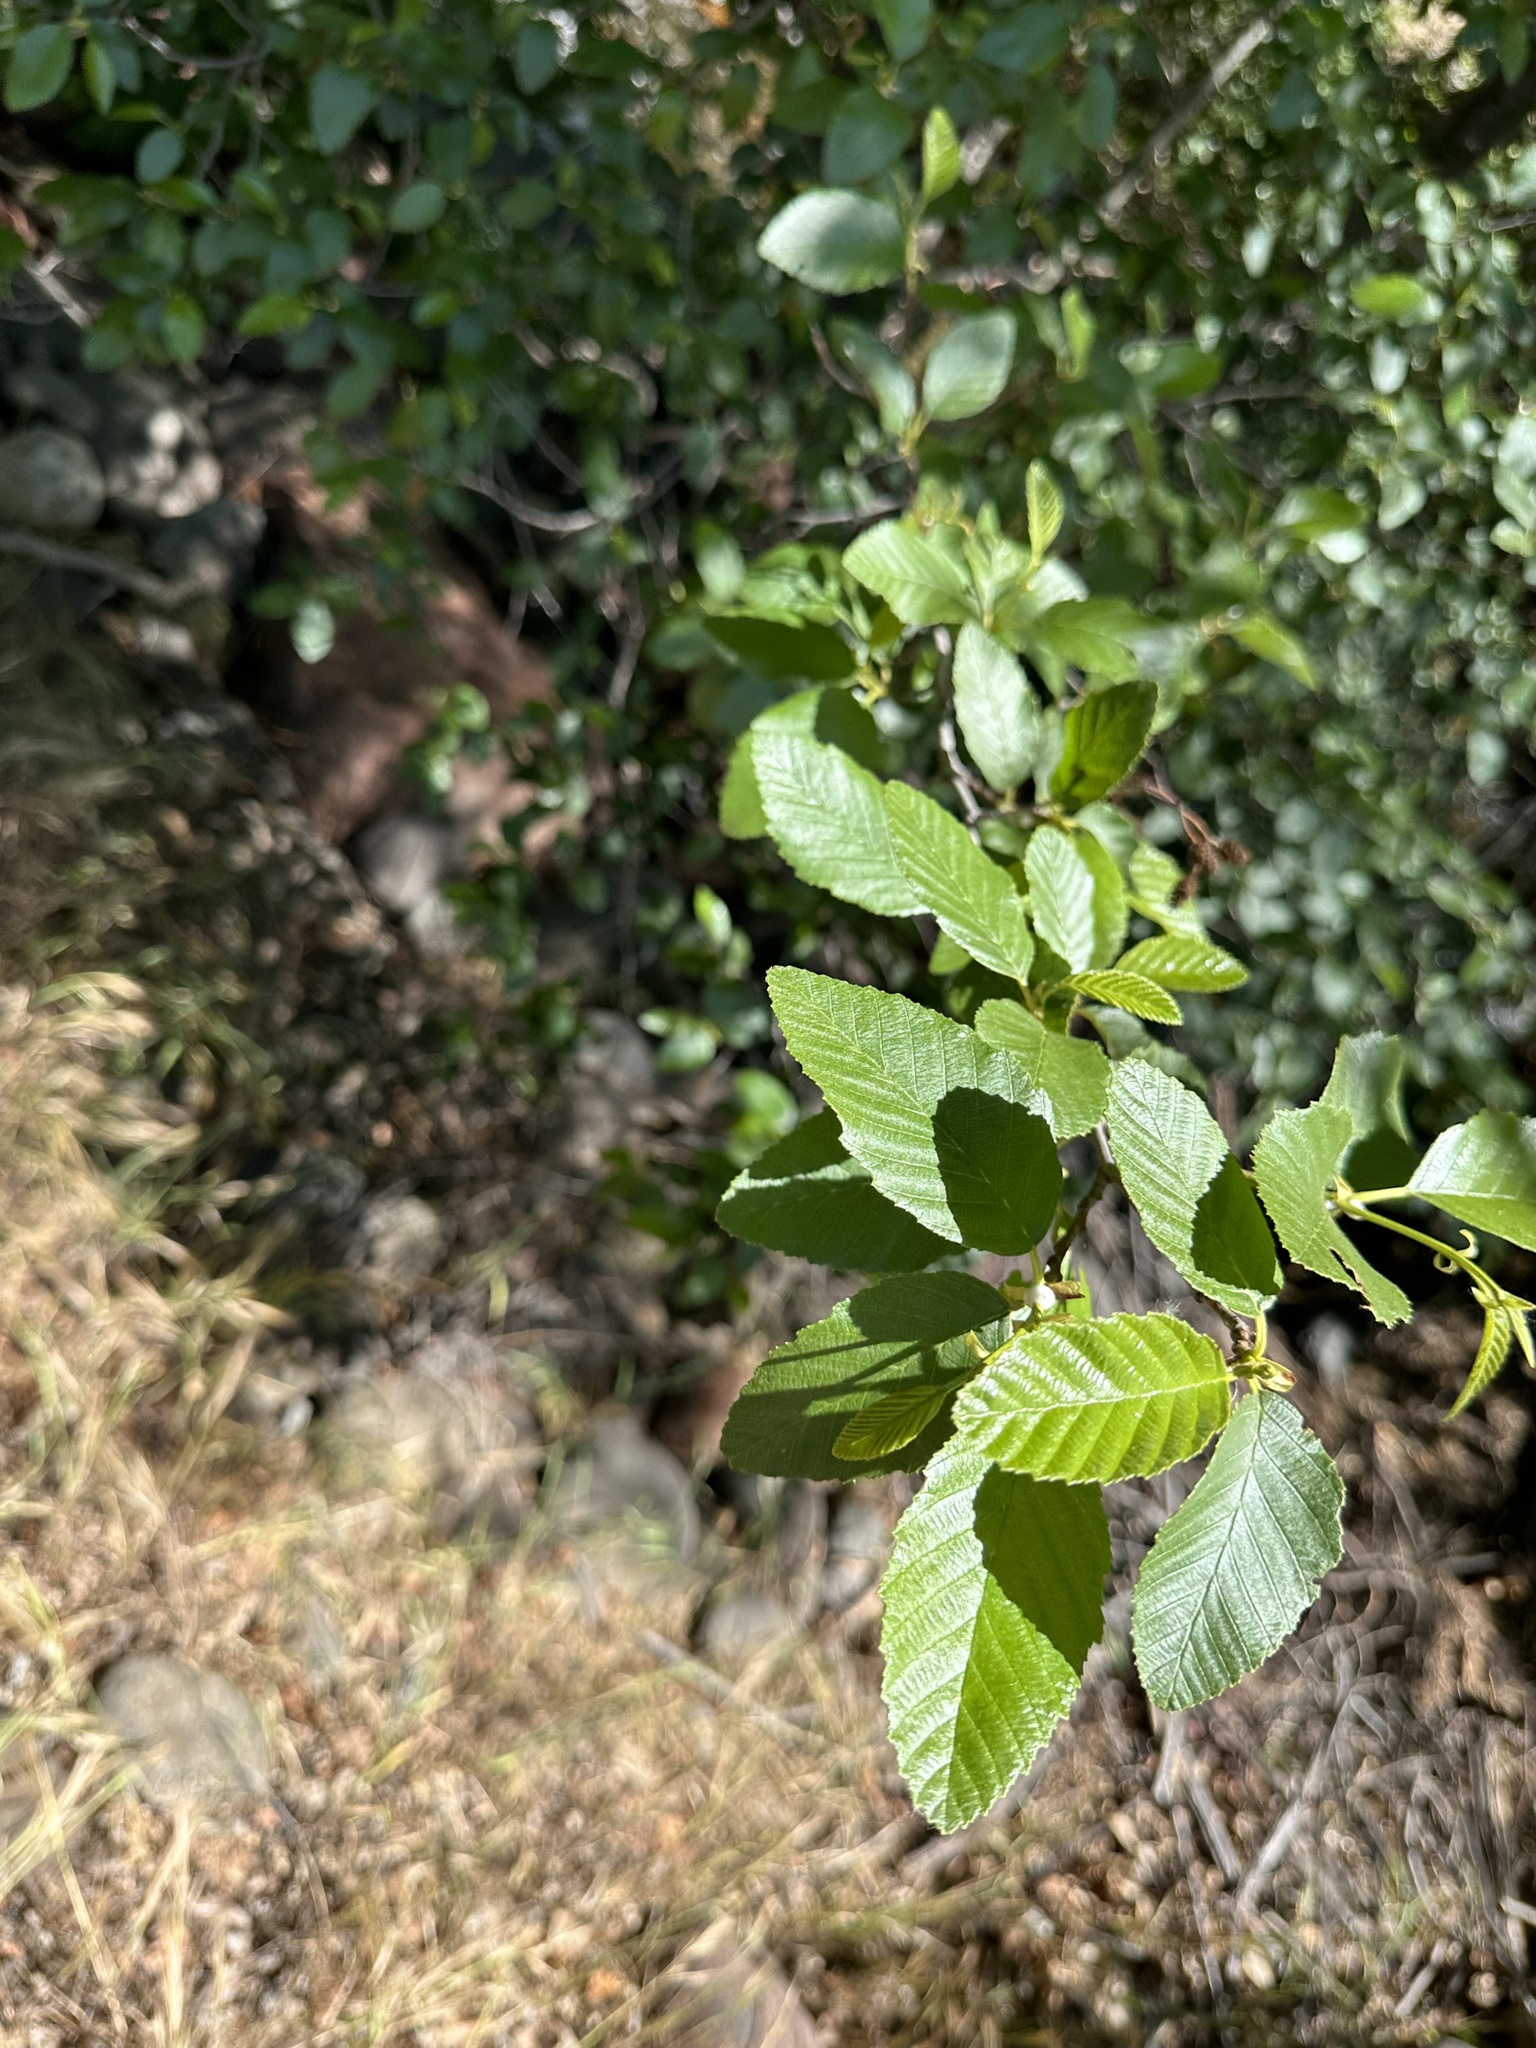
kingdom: Plantae
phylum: Tracheophyta
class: Magnoliopsida
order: Fagales
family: Betulaceae
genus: Alnus
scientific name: Alnus oblongifolia
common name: Arizona alder
